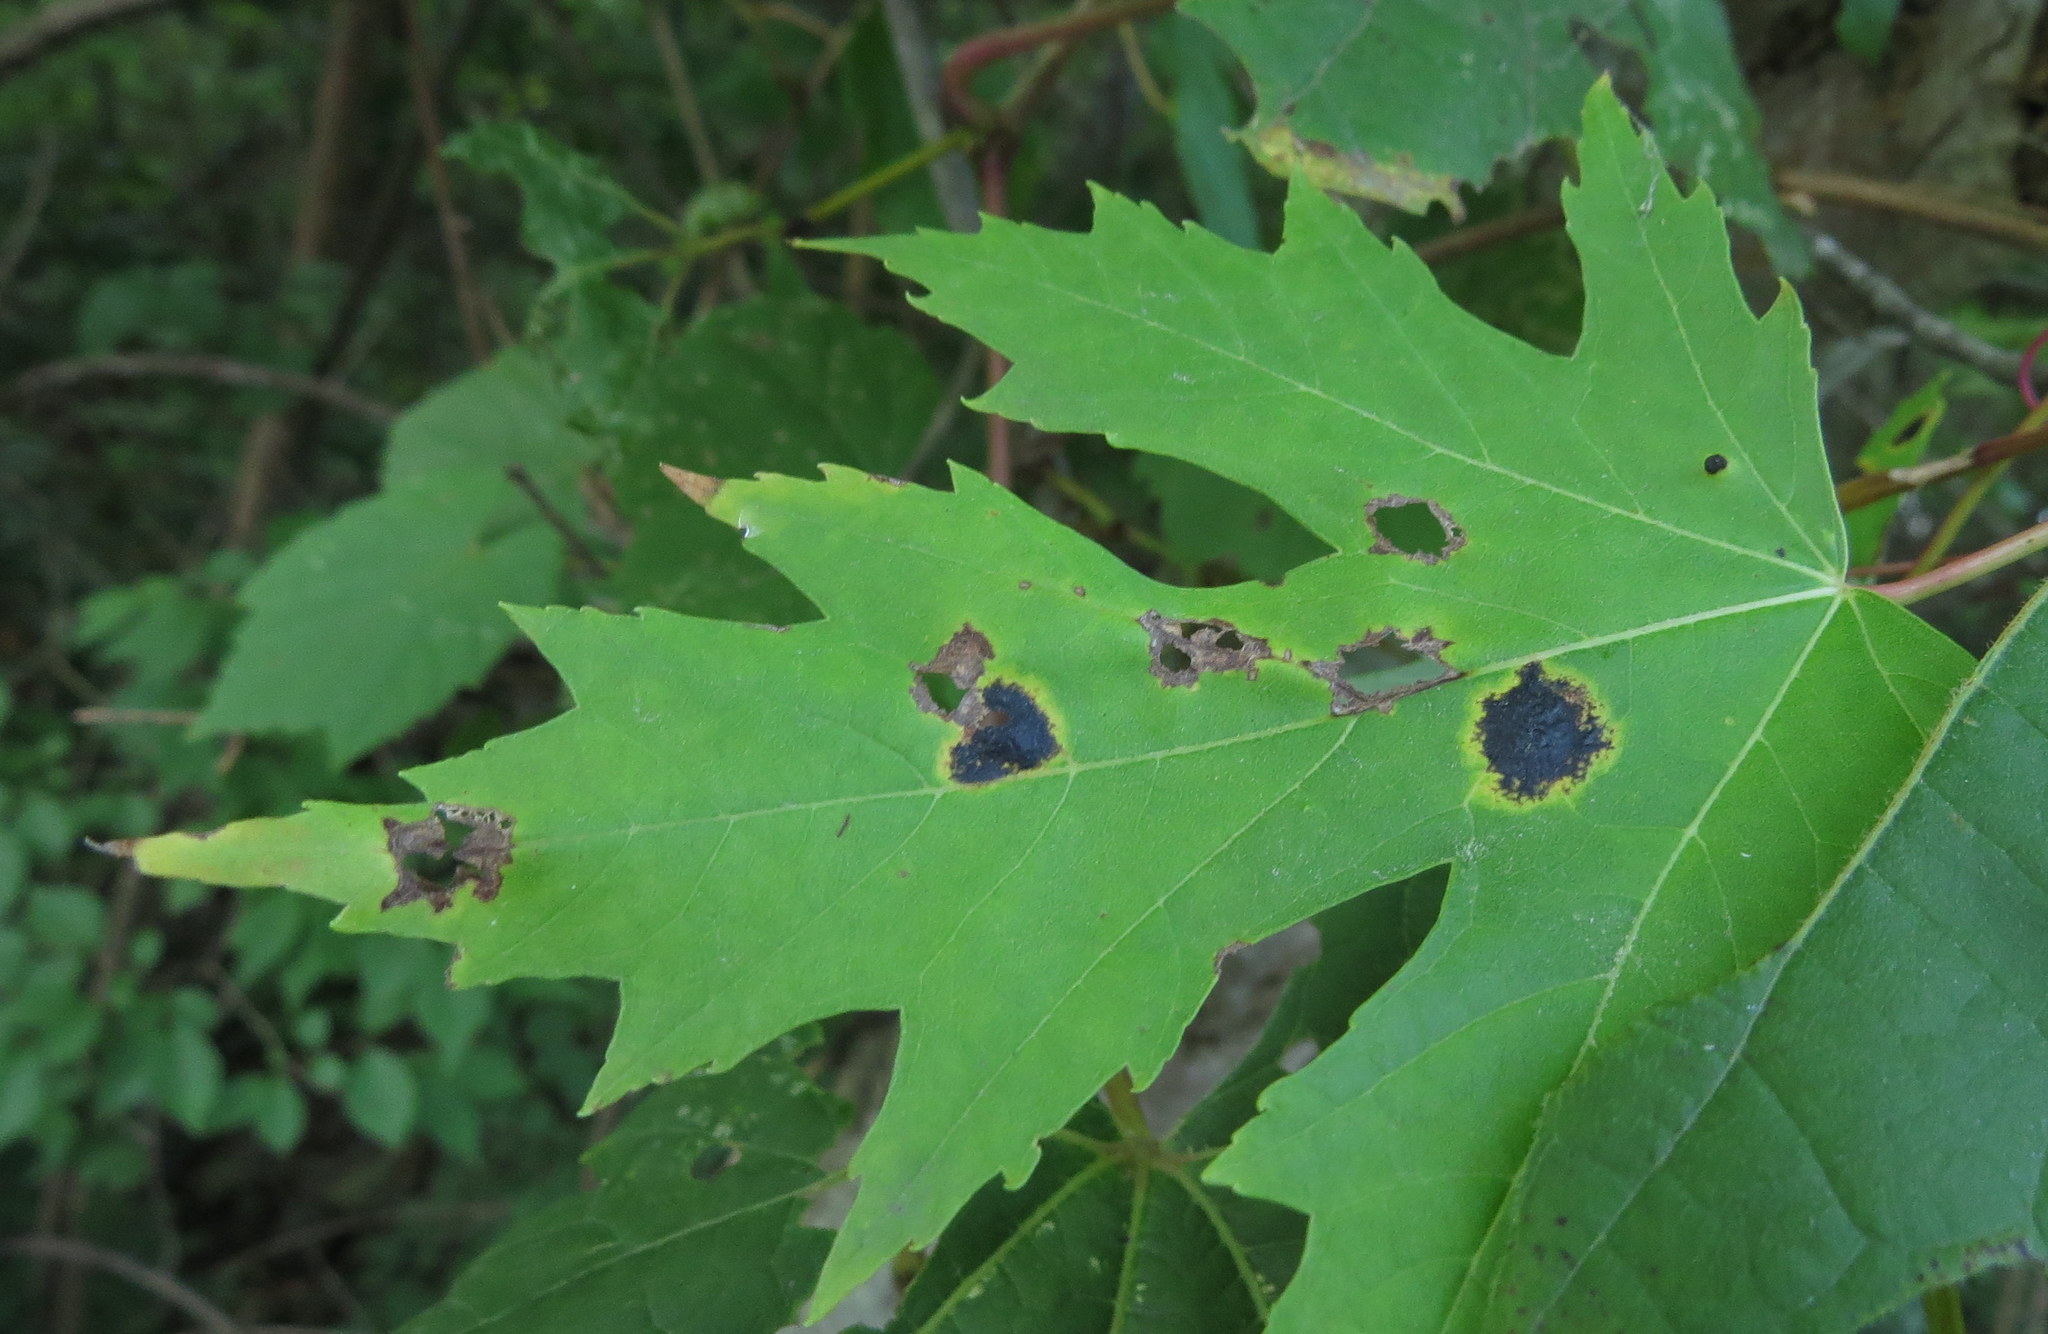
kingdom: Fungi
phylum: Ascomycota
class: Leotiomycetes
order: Rhytismatales
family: Rhytismataceae
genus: Rhytisma
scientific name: Rhytisma americanum
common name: American tar spot
